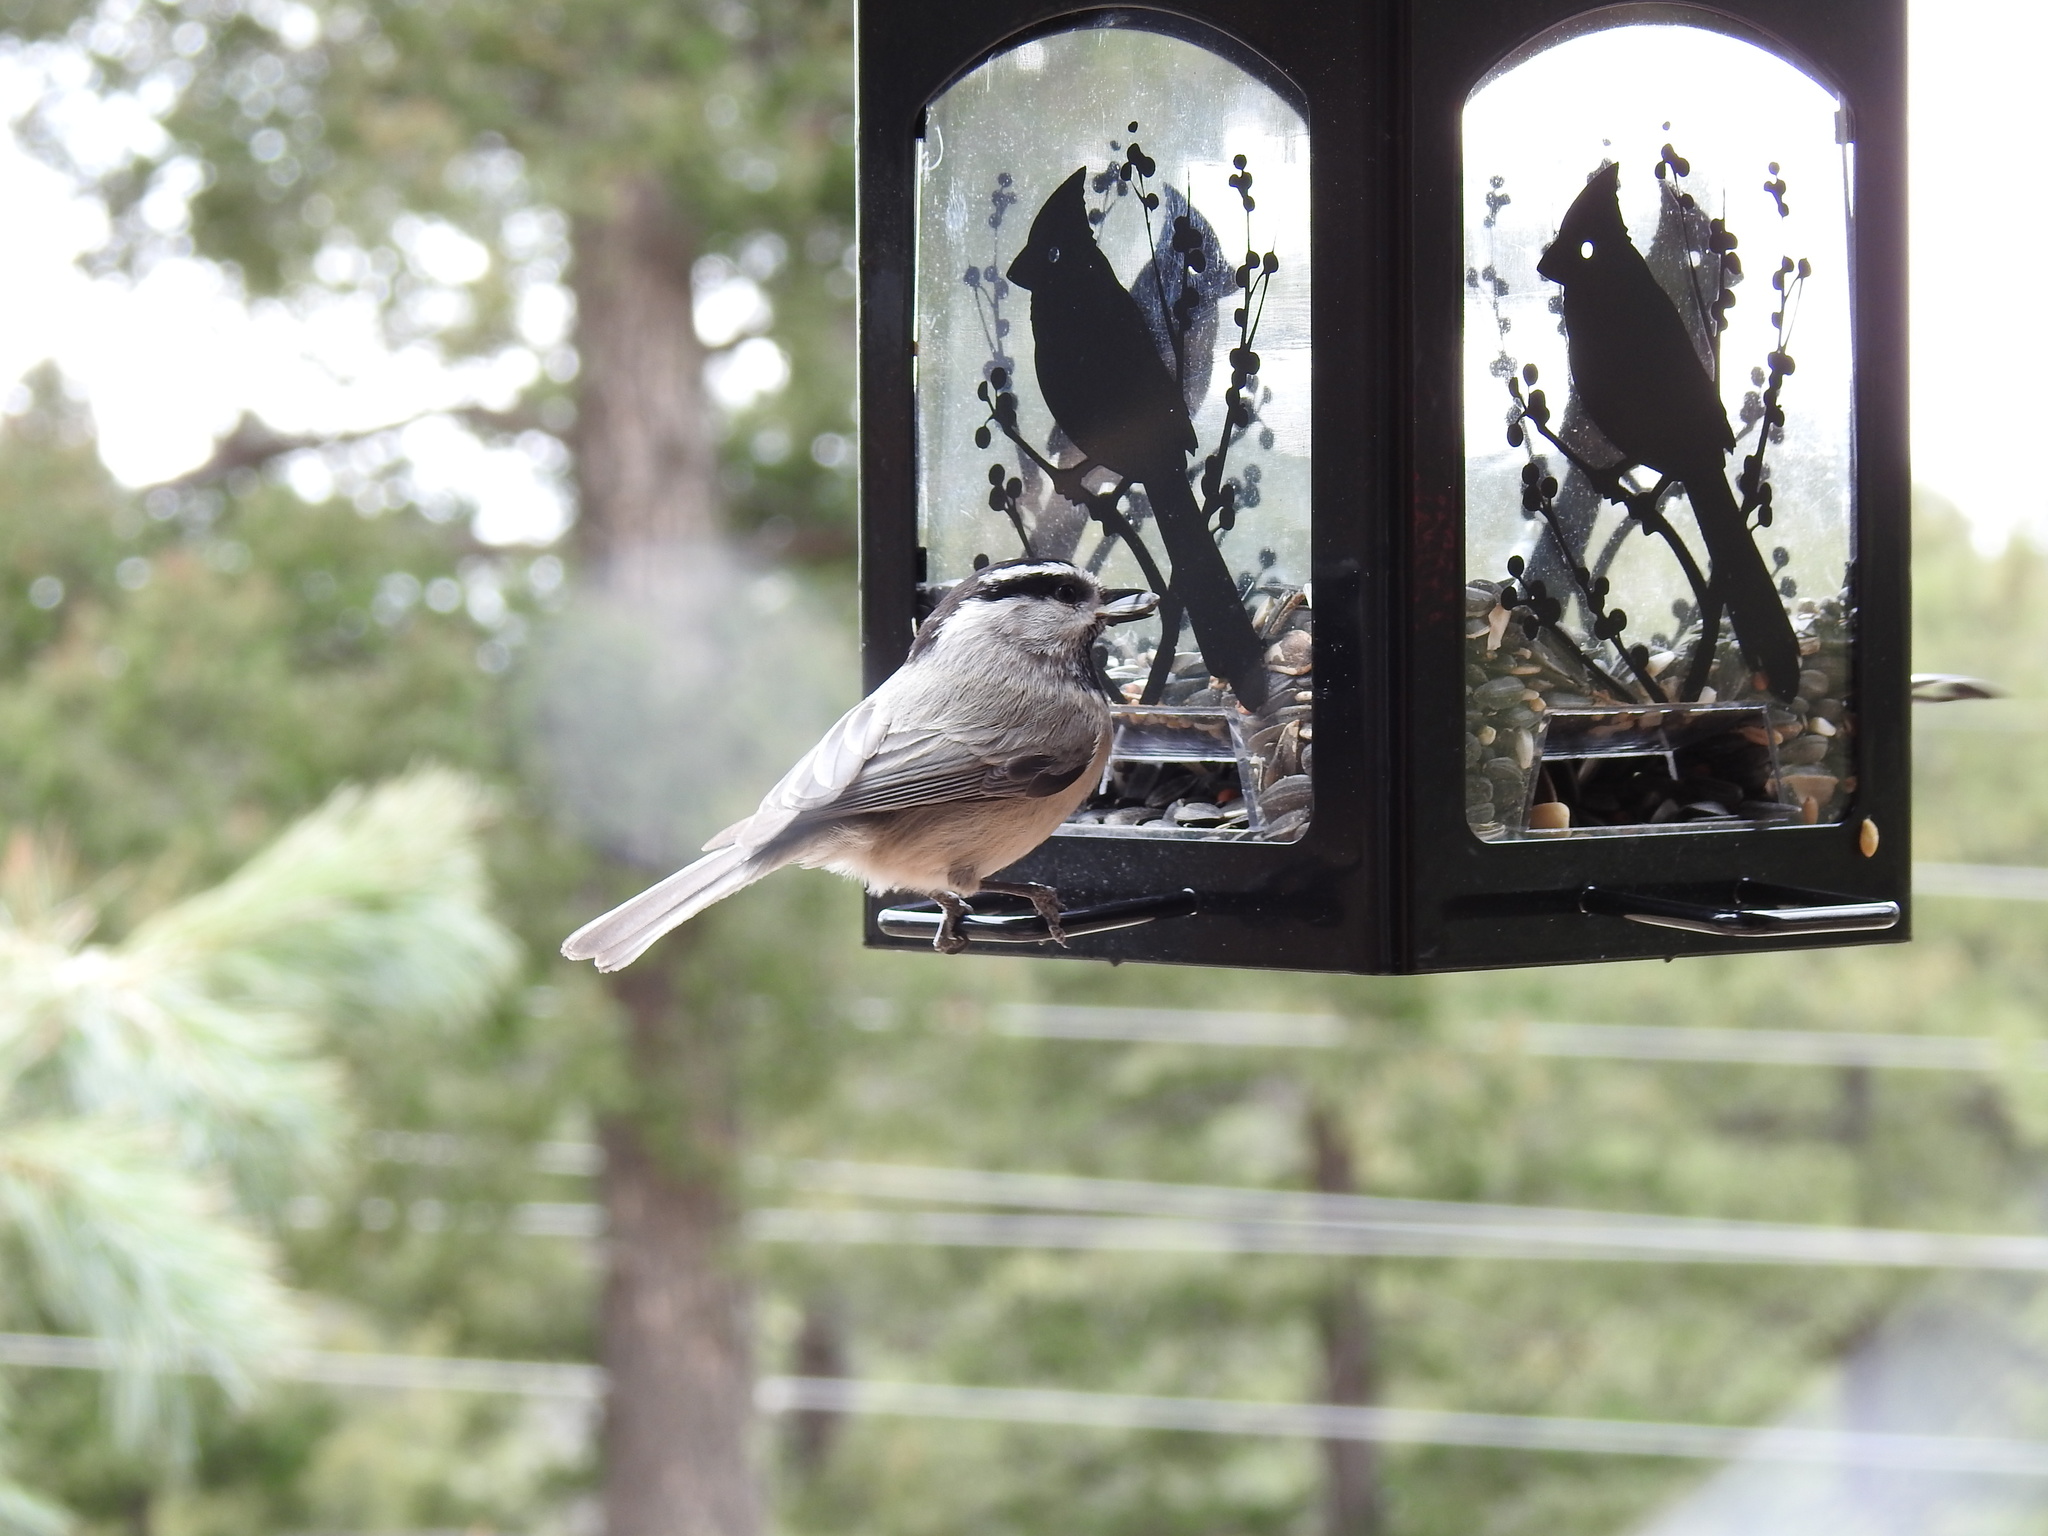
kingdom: Animalia
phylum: Chordata
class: Aves
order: Passeriformes
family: Paridae
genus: Poecile
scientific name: Poecile gambeli
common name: Mountain chickadee
